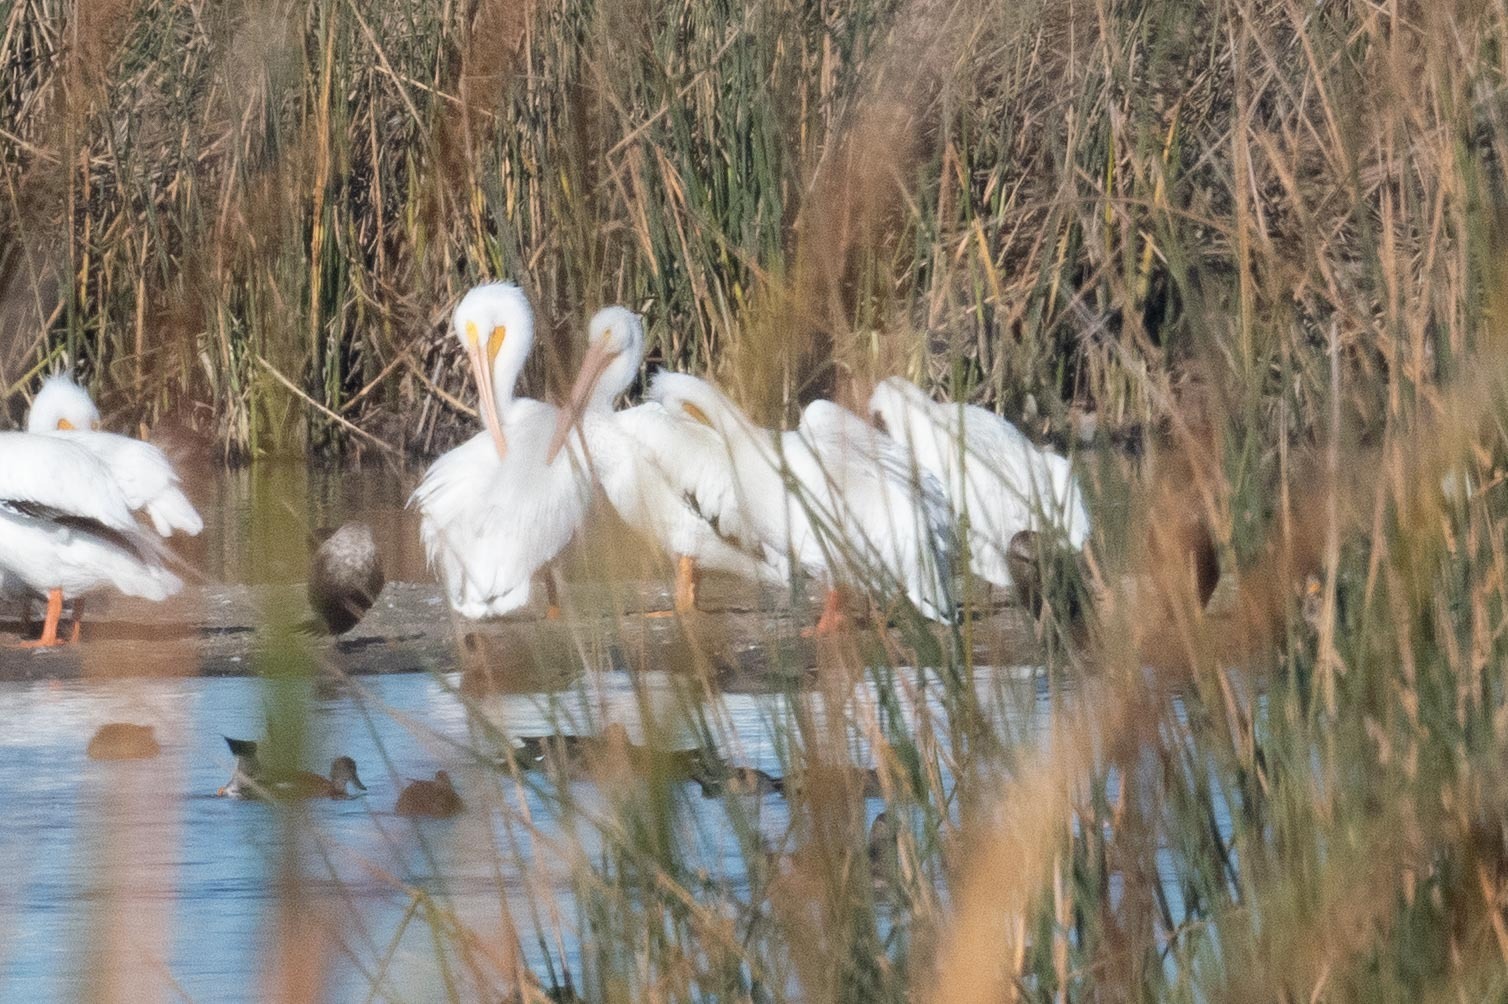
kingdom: Animalia
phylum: Chordata
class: Aves
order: Pelecaniformes
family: Pelecanidae
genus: Pelecanus
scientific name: Pelecanus erythrorhynchos
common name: American white pelican
